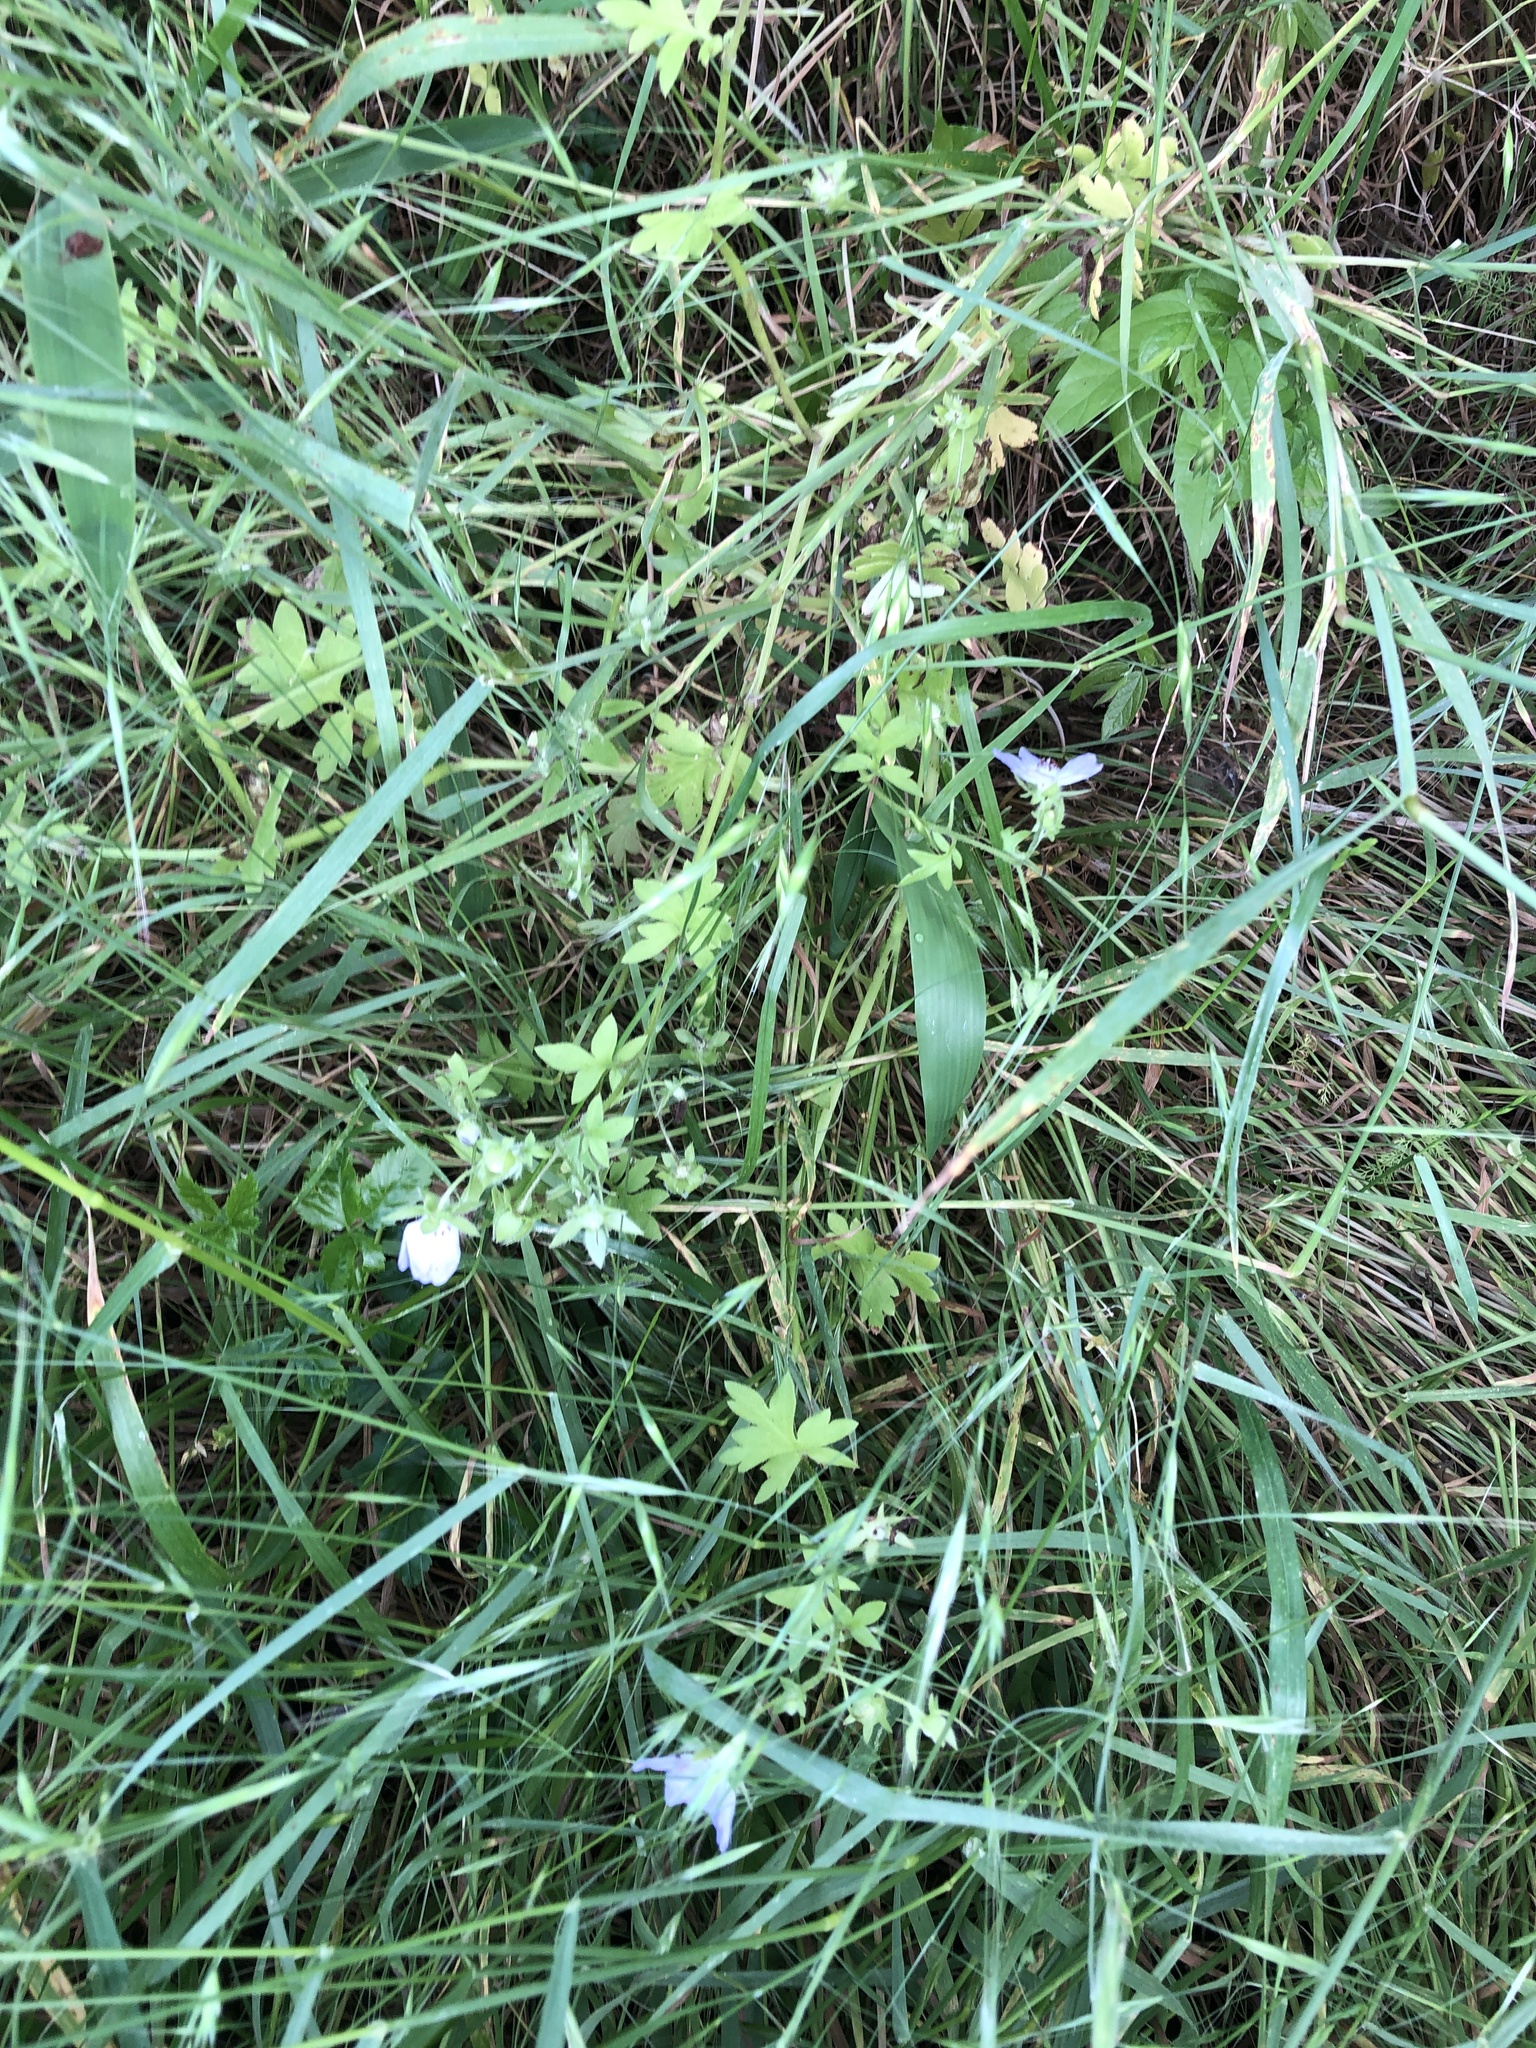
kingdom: Plantae
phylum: Tracheophyta
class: Magnoliopsida
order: Boraginales
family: Hydrophyllaceae
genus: Nemophila
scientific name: Nemophila phacelioides
